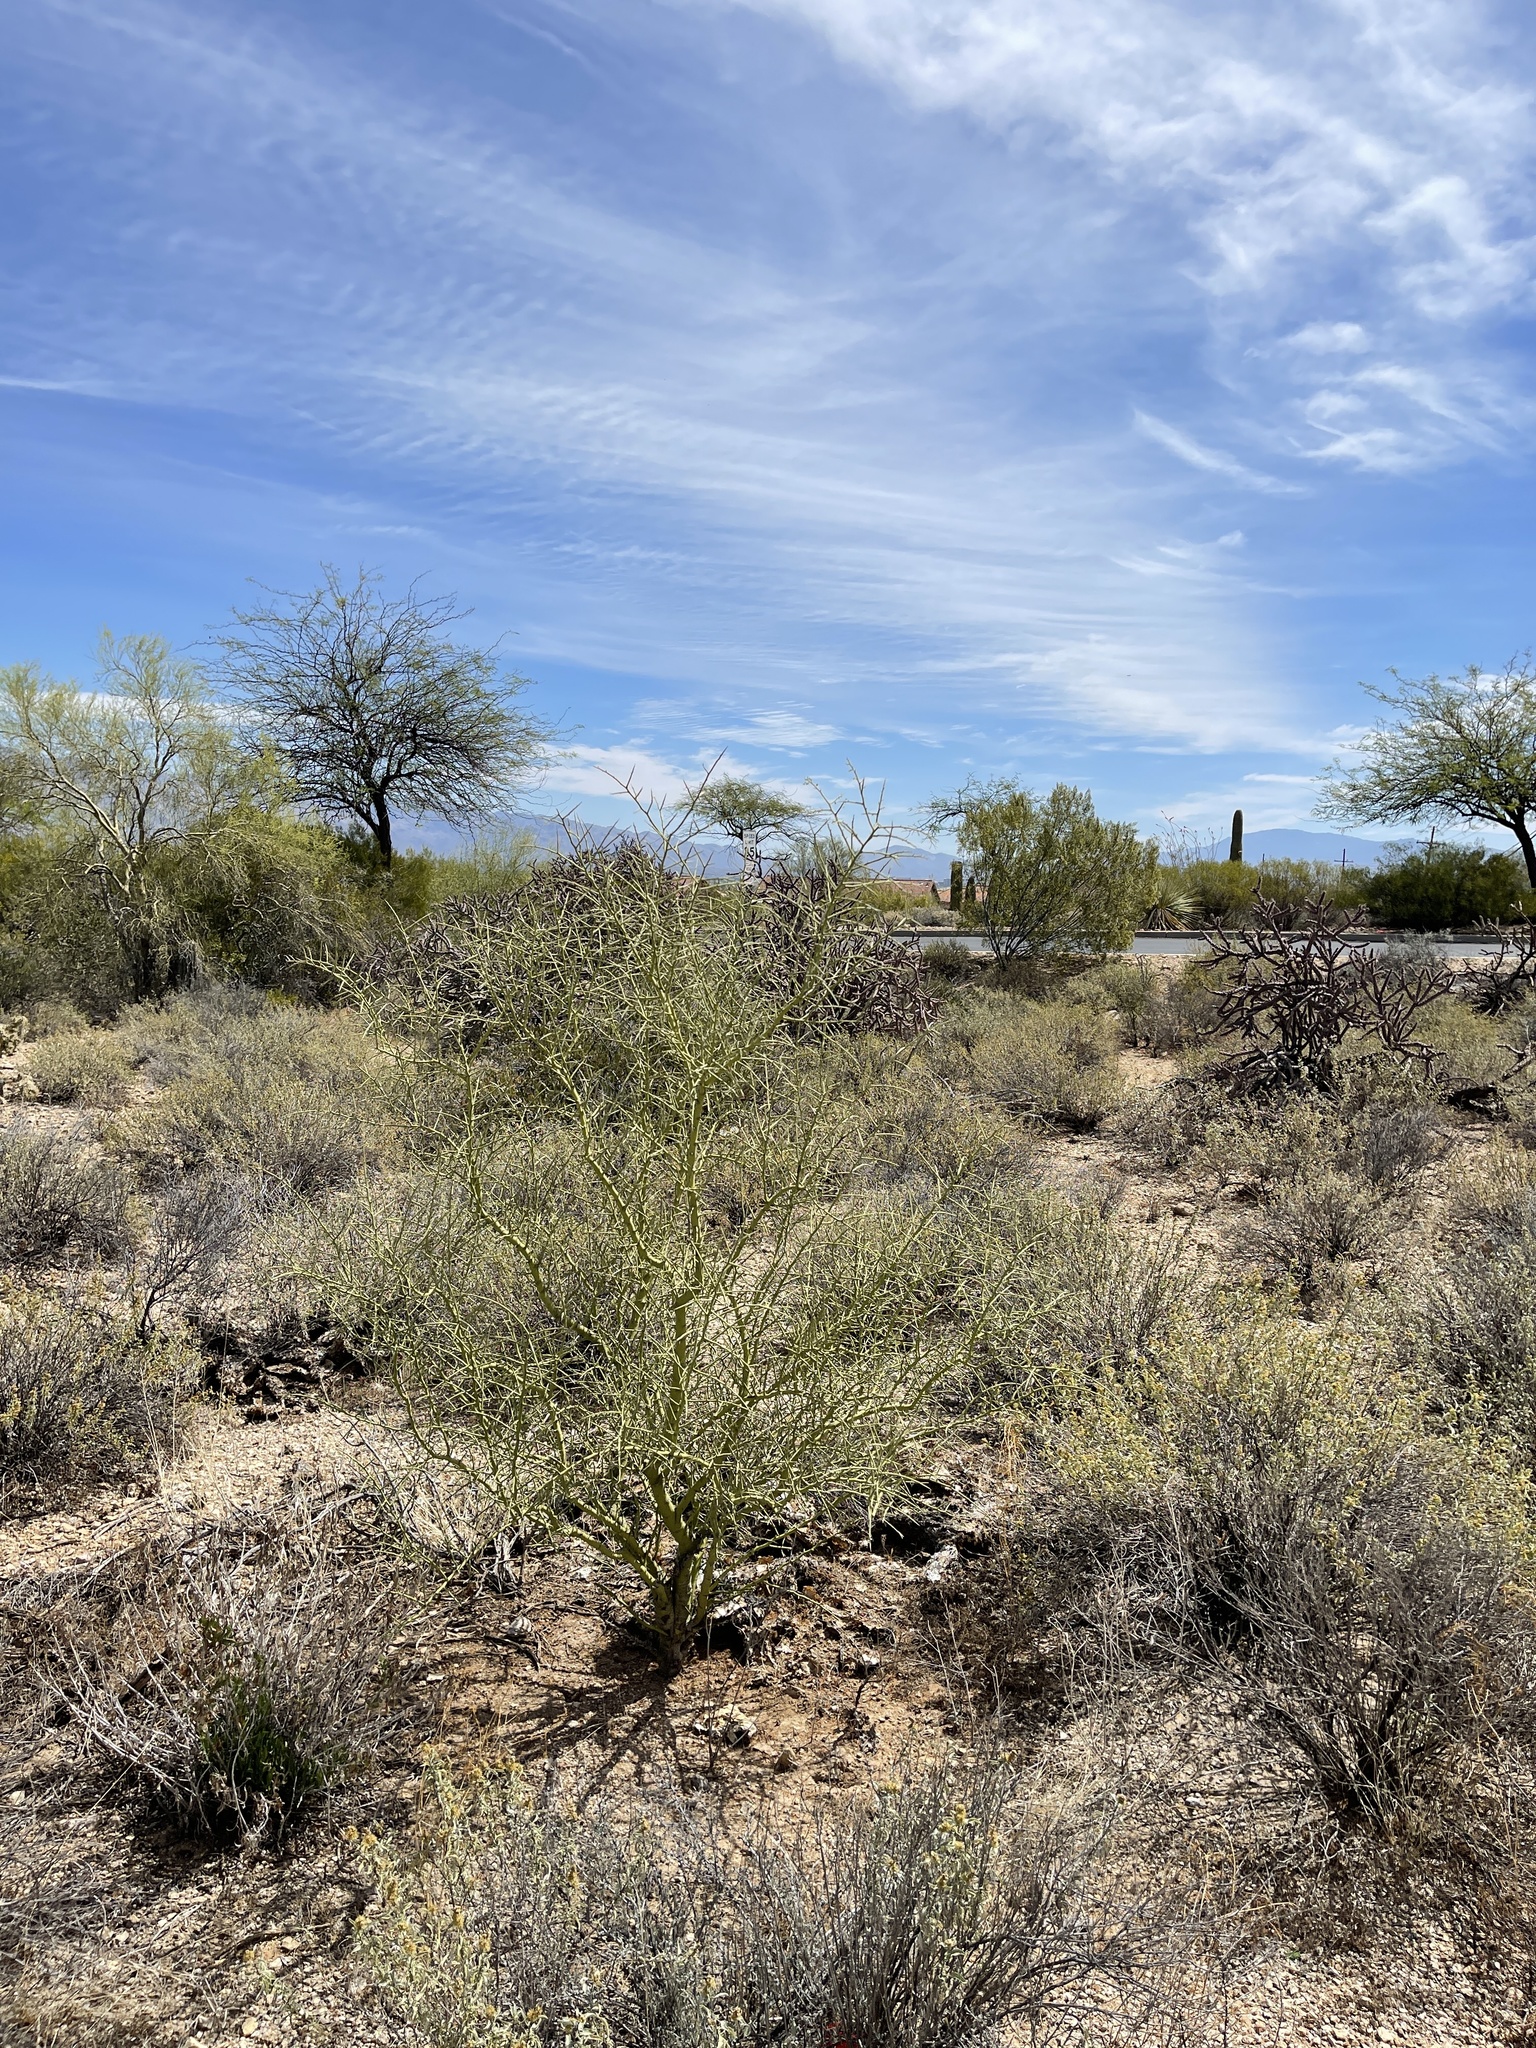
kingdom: Plantae
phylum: Tracheophyta
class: Magnoliopsida
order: Fabales
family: Fabaceae
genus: Parkinsonia
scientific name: Parkinsonia microphylla
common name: Yellow paloverde
